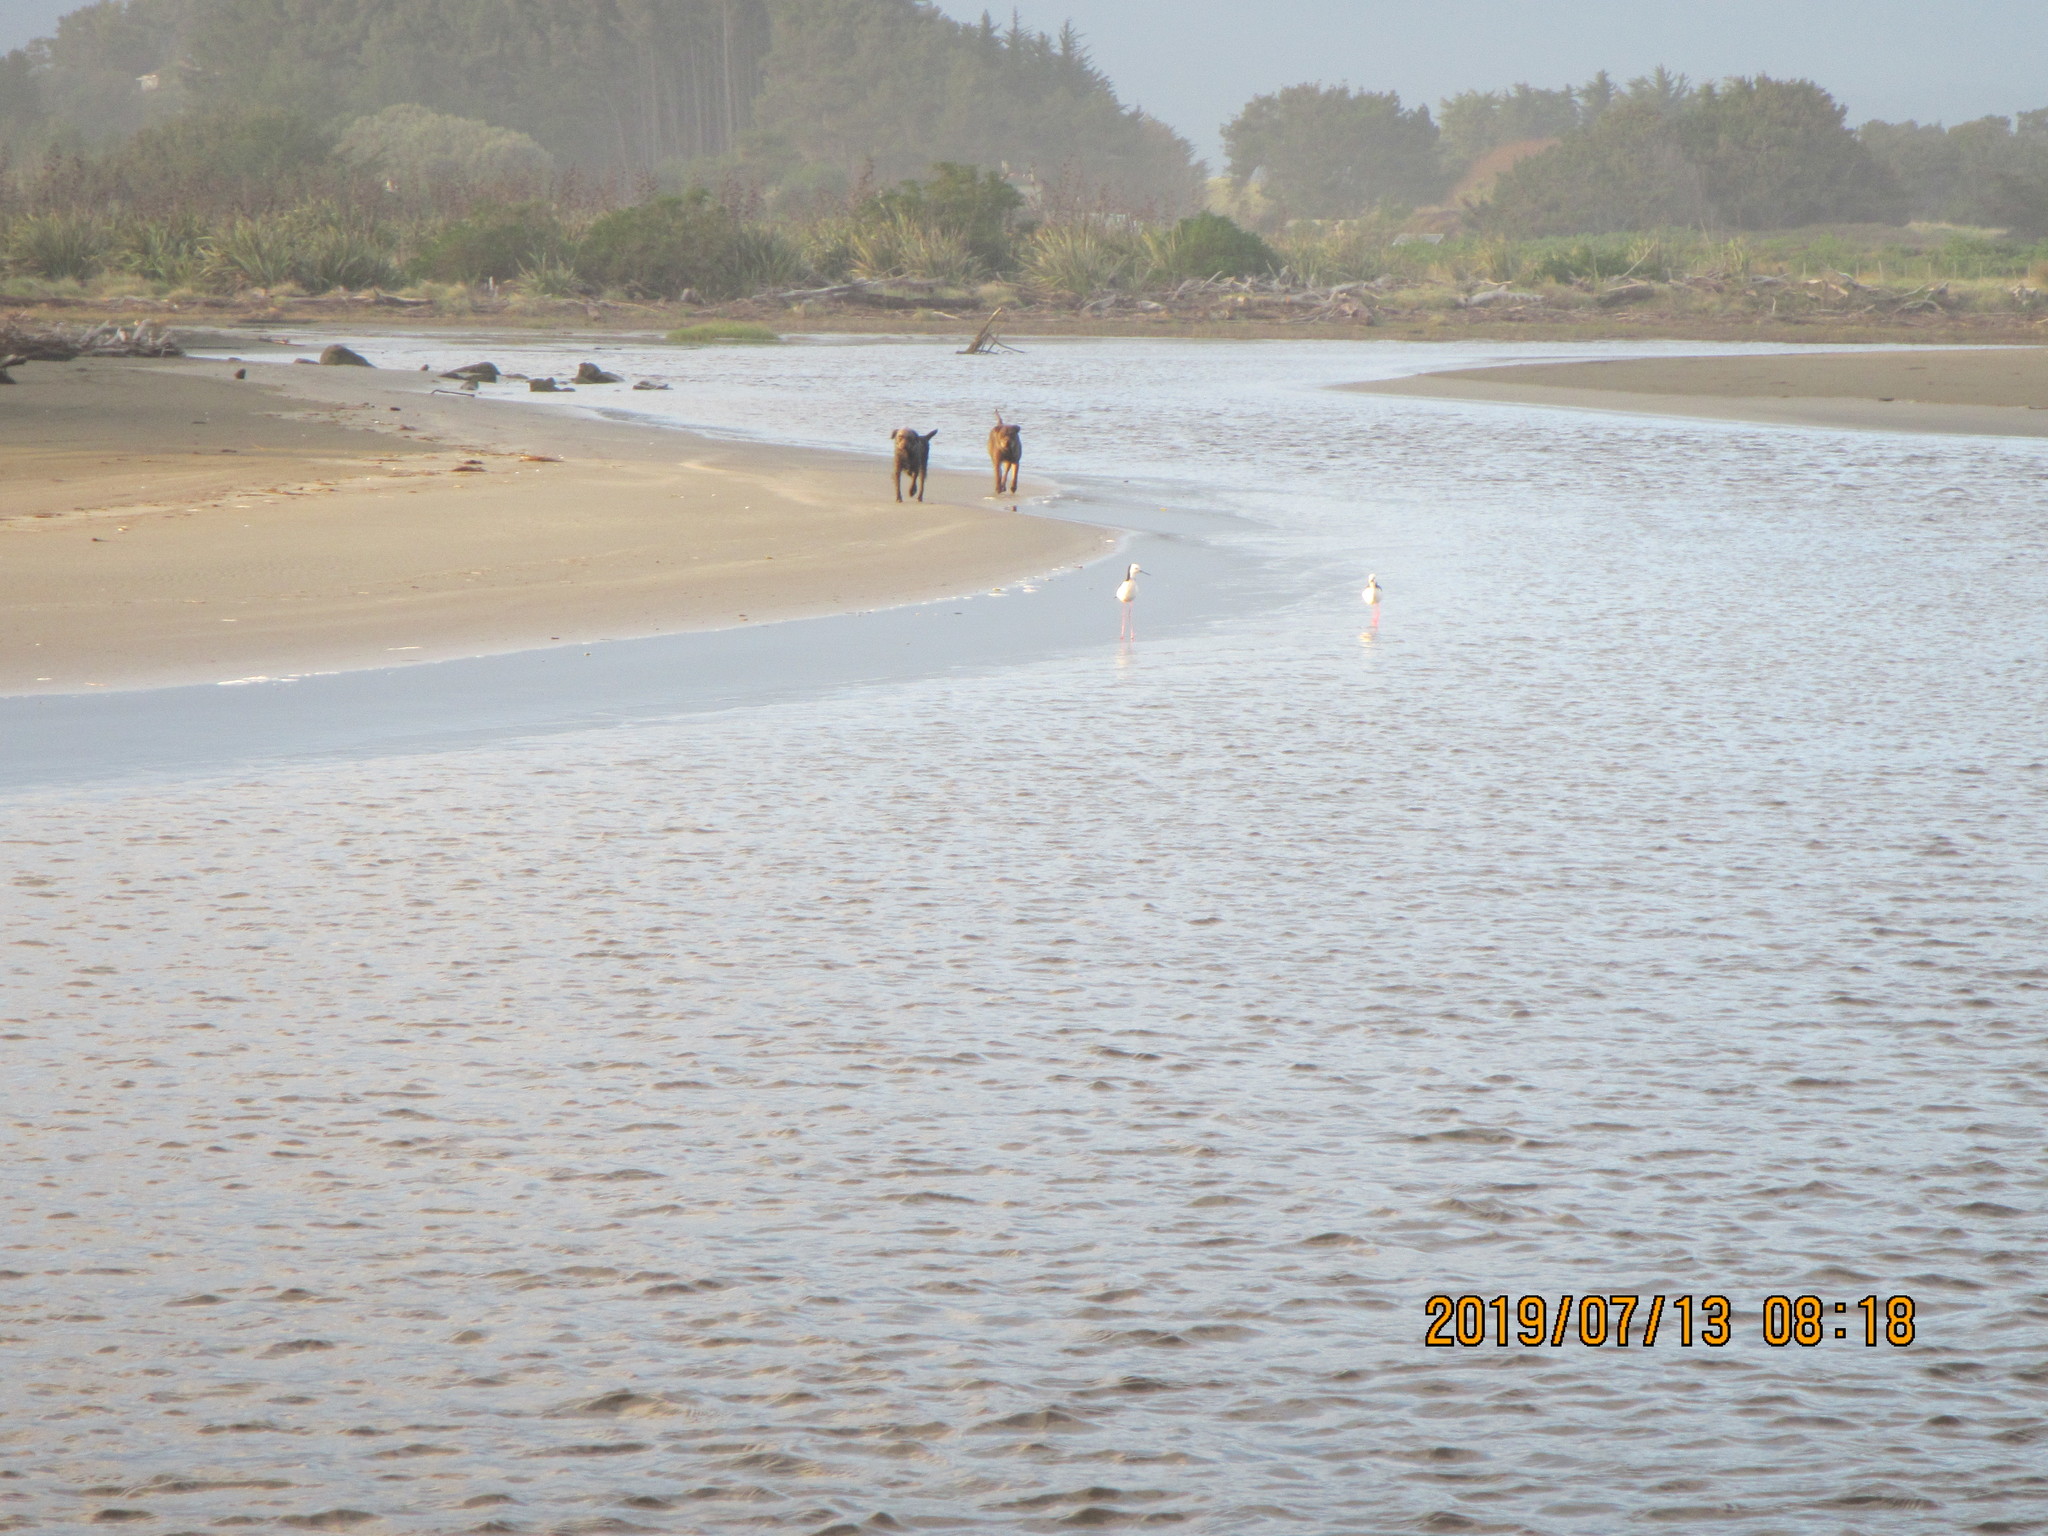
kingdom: Animalia
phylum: Chordata
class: Aves
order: Charadriiformes
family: Recurvirostridae
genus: Himantopus
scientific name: Himantopus leucocephalus
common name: White-headed stilt
